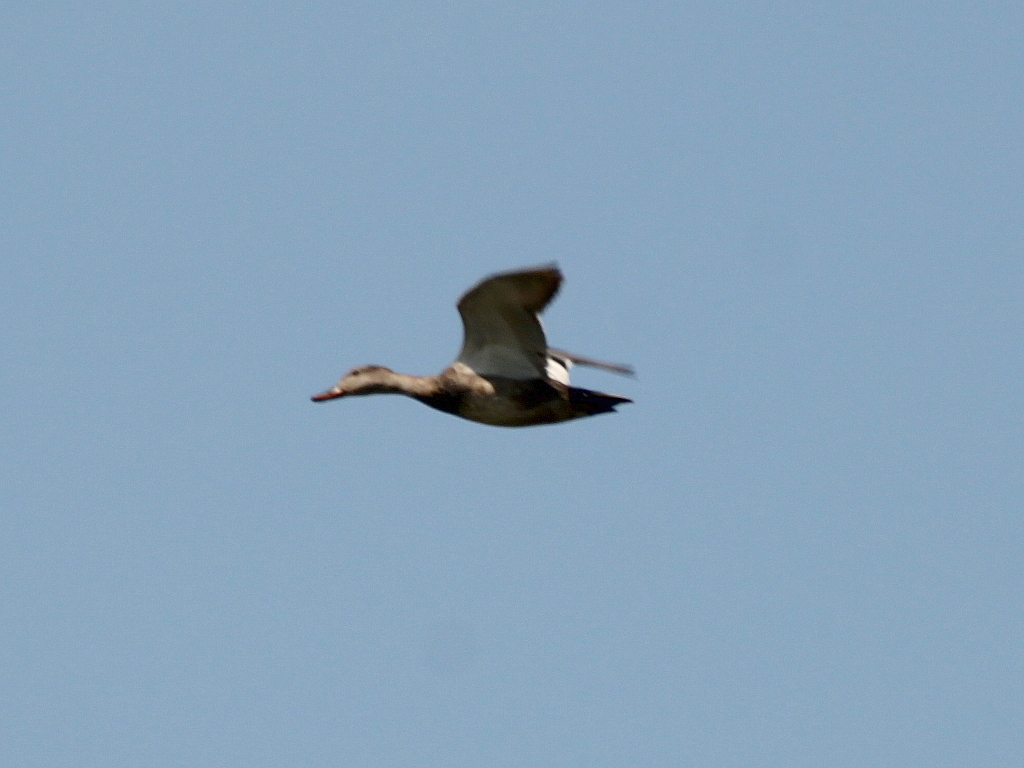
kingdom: Animalia
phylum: Chordata
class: Aves
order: Anseriformes
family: Anatidae
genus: Mareca
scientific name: Mareca strepera
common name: Gadwall
